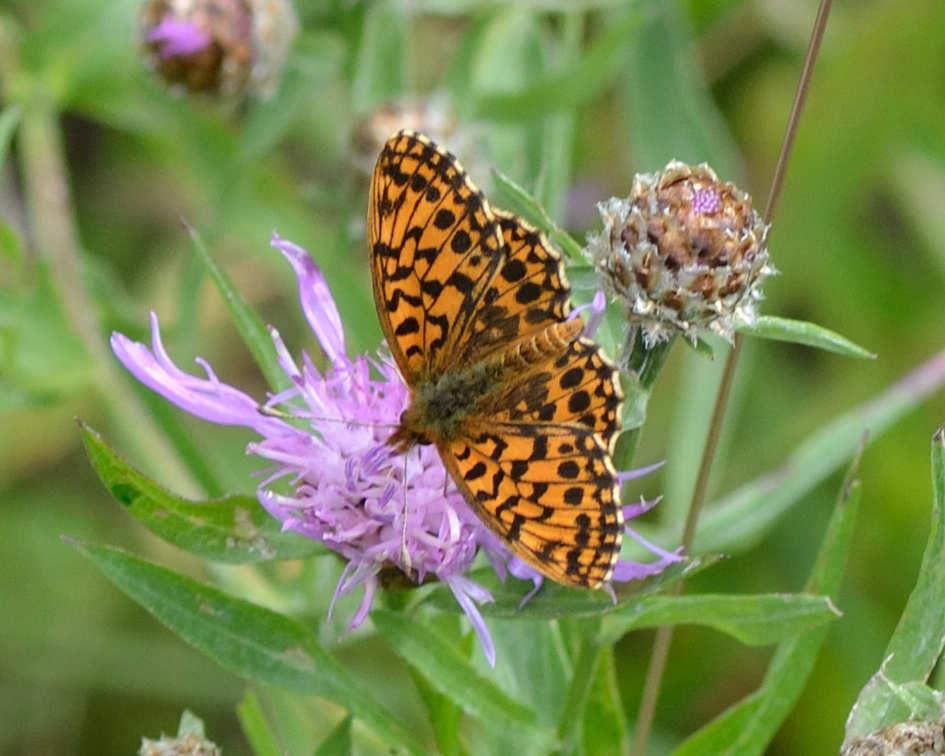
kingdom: Animalia
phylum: Arthropoda
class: Insecta
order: Lepidoptera
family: Nymphalidae
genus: Boloria
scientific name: Boloria dia
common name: Weaver's fritillary
